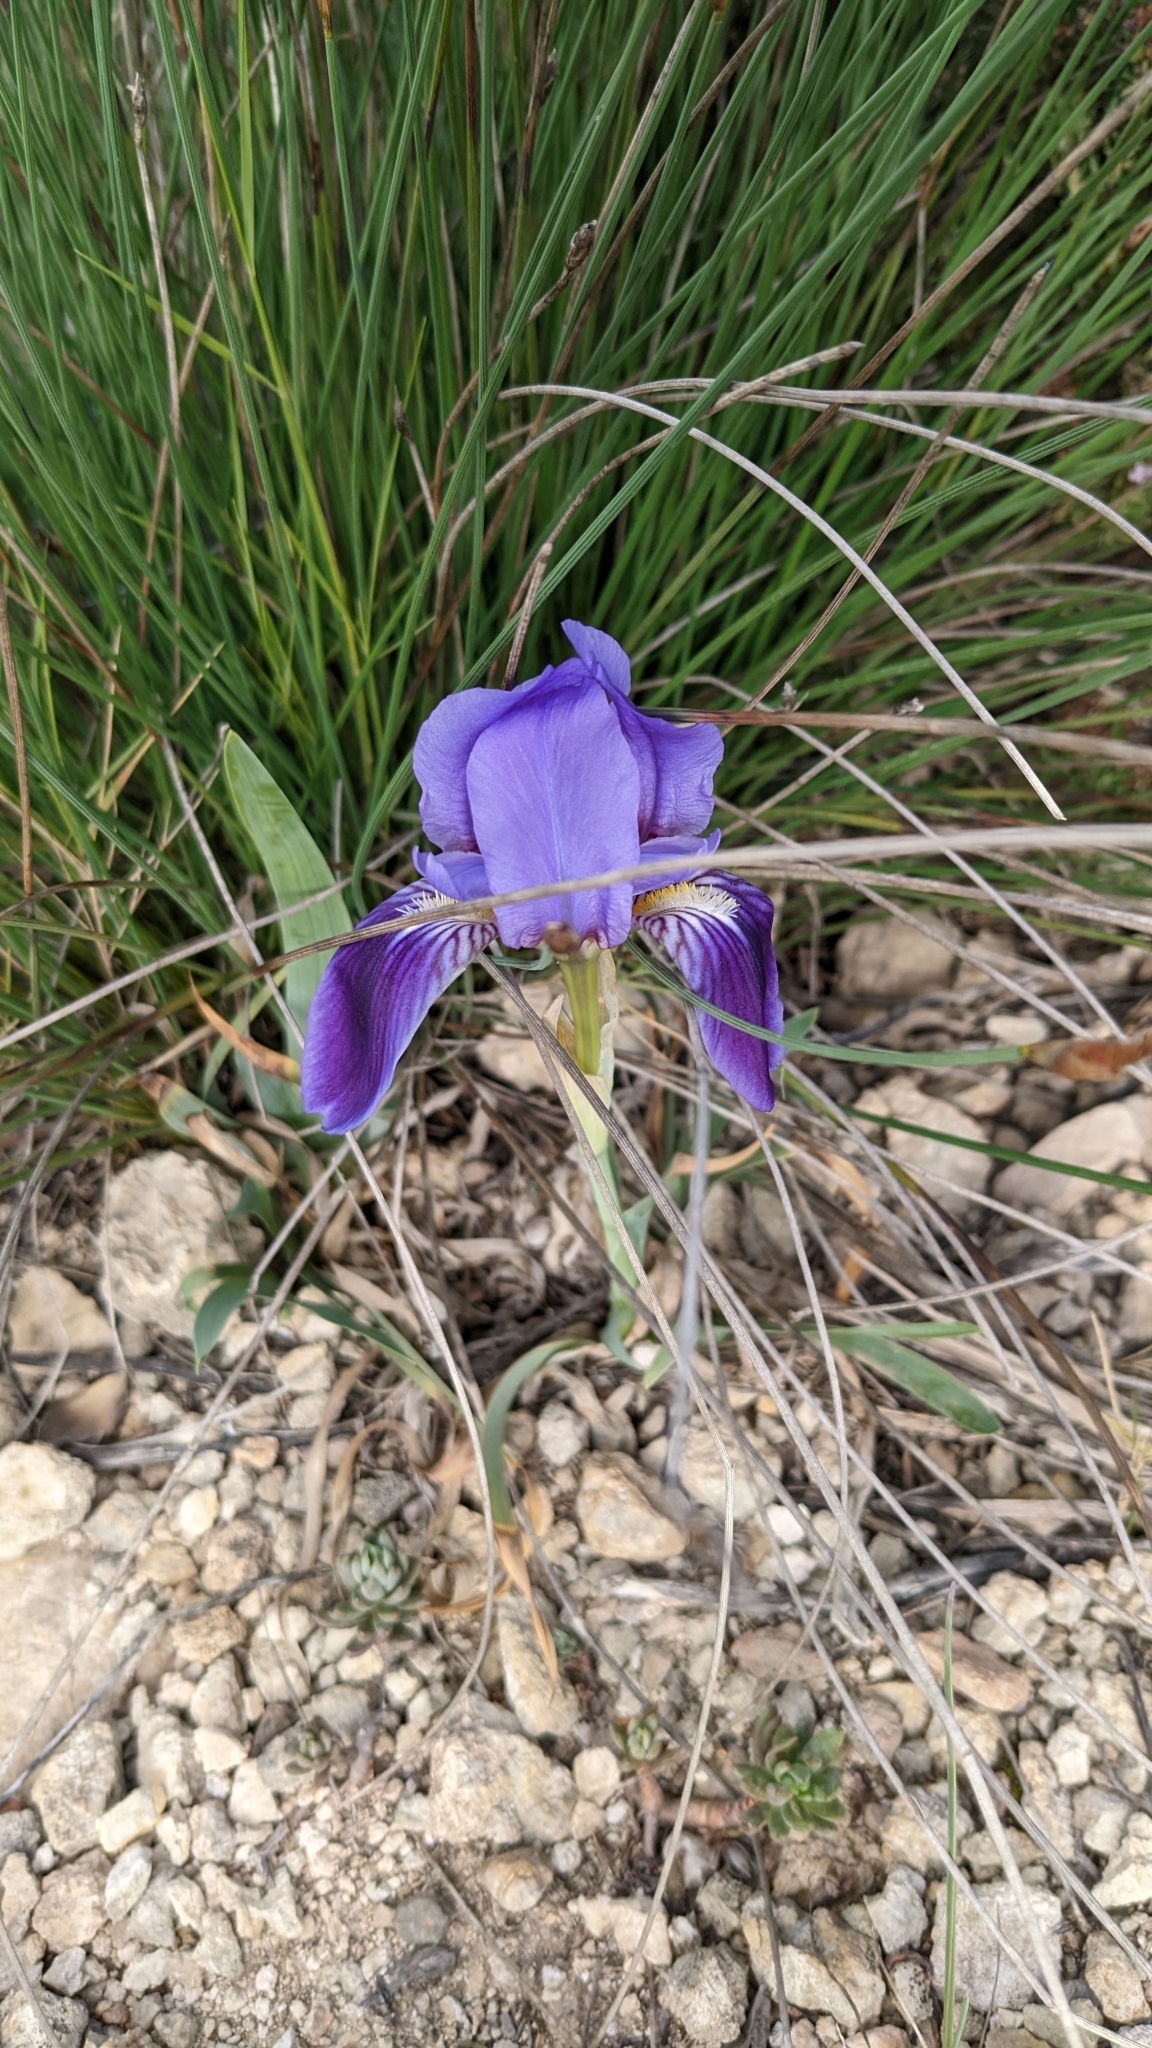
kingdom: Plantae
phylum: Tracheophyta
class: Liliopsida
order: Asparagales
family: Iridaceae
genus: Iris
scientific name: Iris lutescens
